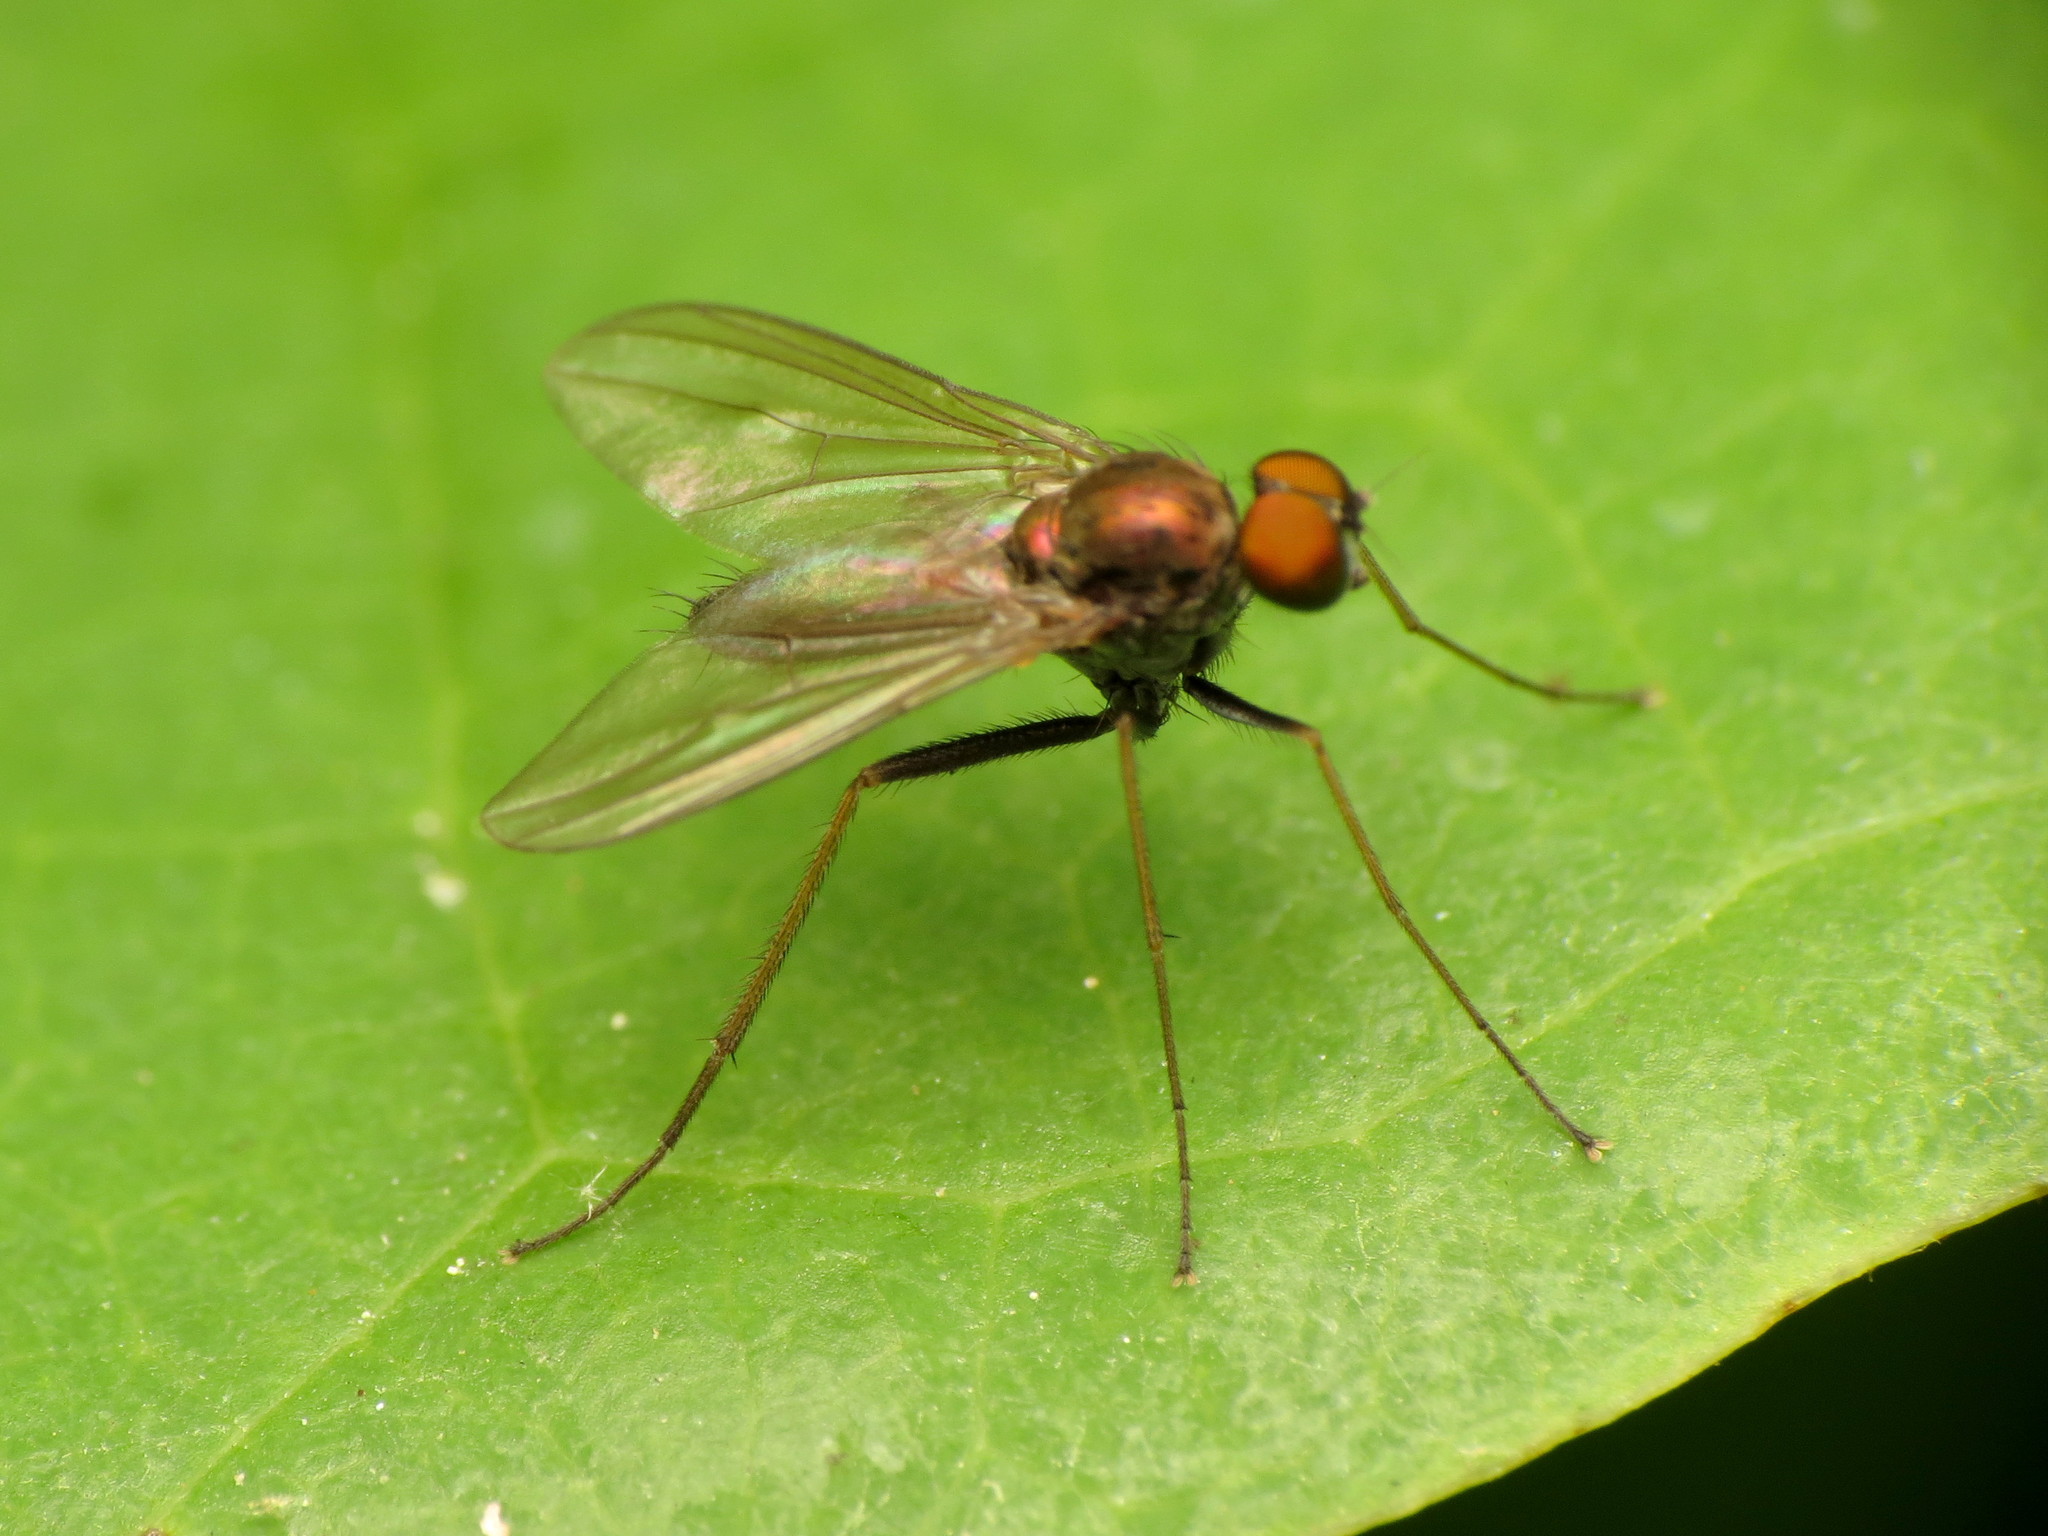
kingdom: Animalia
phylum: Arthropoda
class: Insecta
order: Diptera
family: Dolichopodidae
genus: Chrysotus
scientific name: Chrysotus spectabilis
